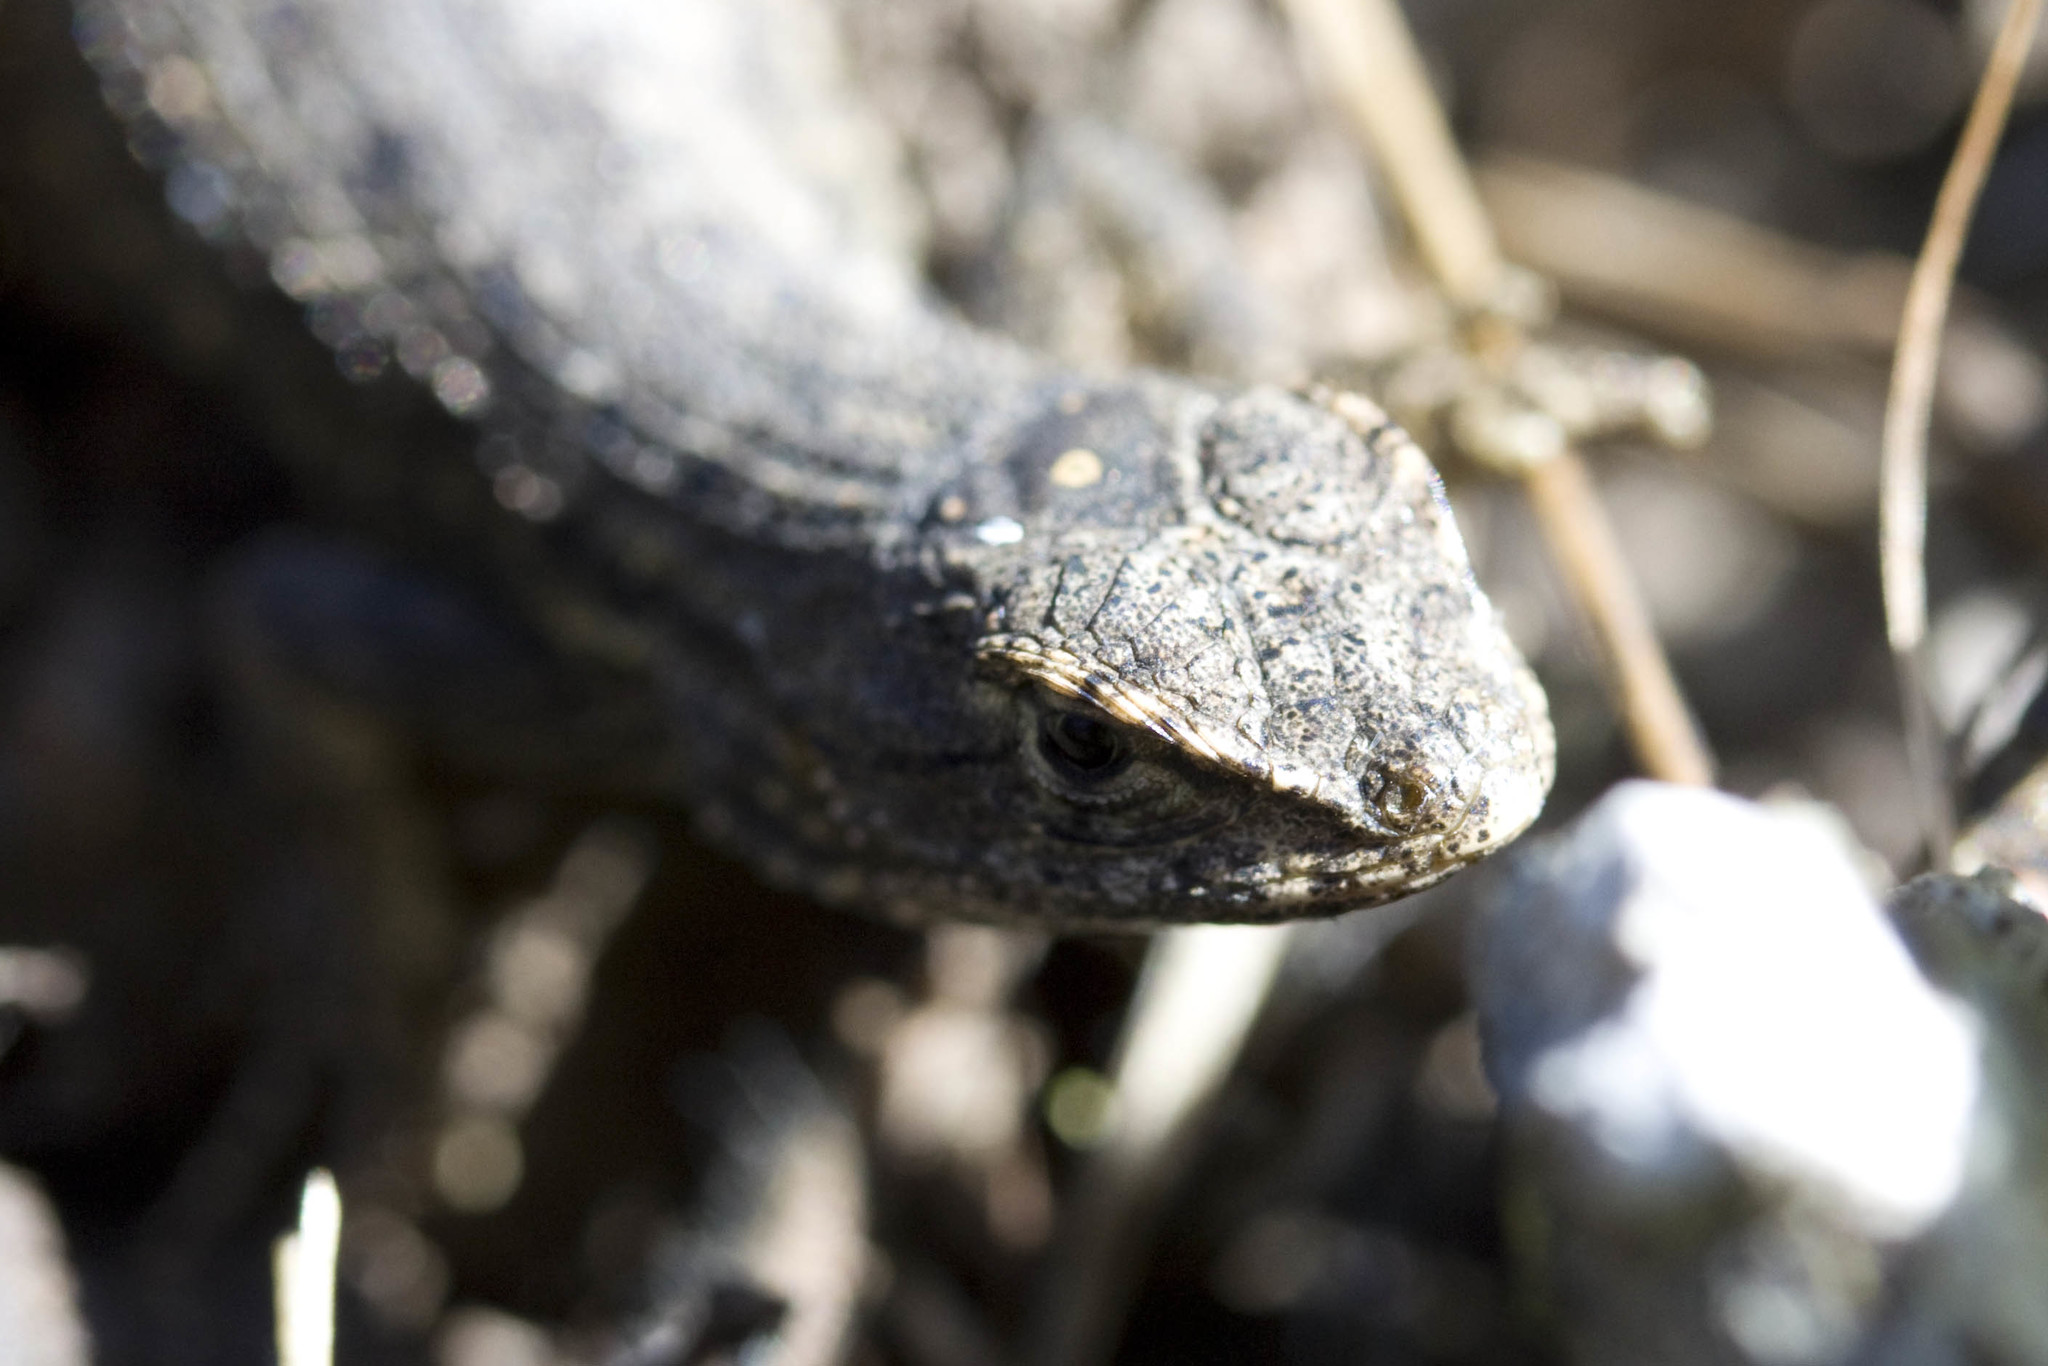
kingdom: Animalia
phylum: Chordata
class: Squamata
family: Phrynosomatidae
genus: Sceloporus
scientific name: Sceloporus occidentalis
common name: Western fence lizard
